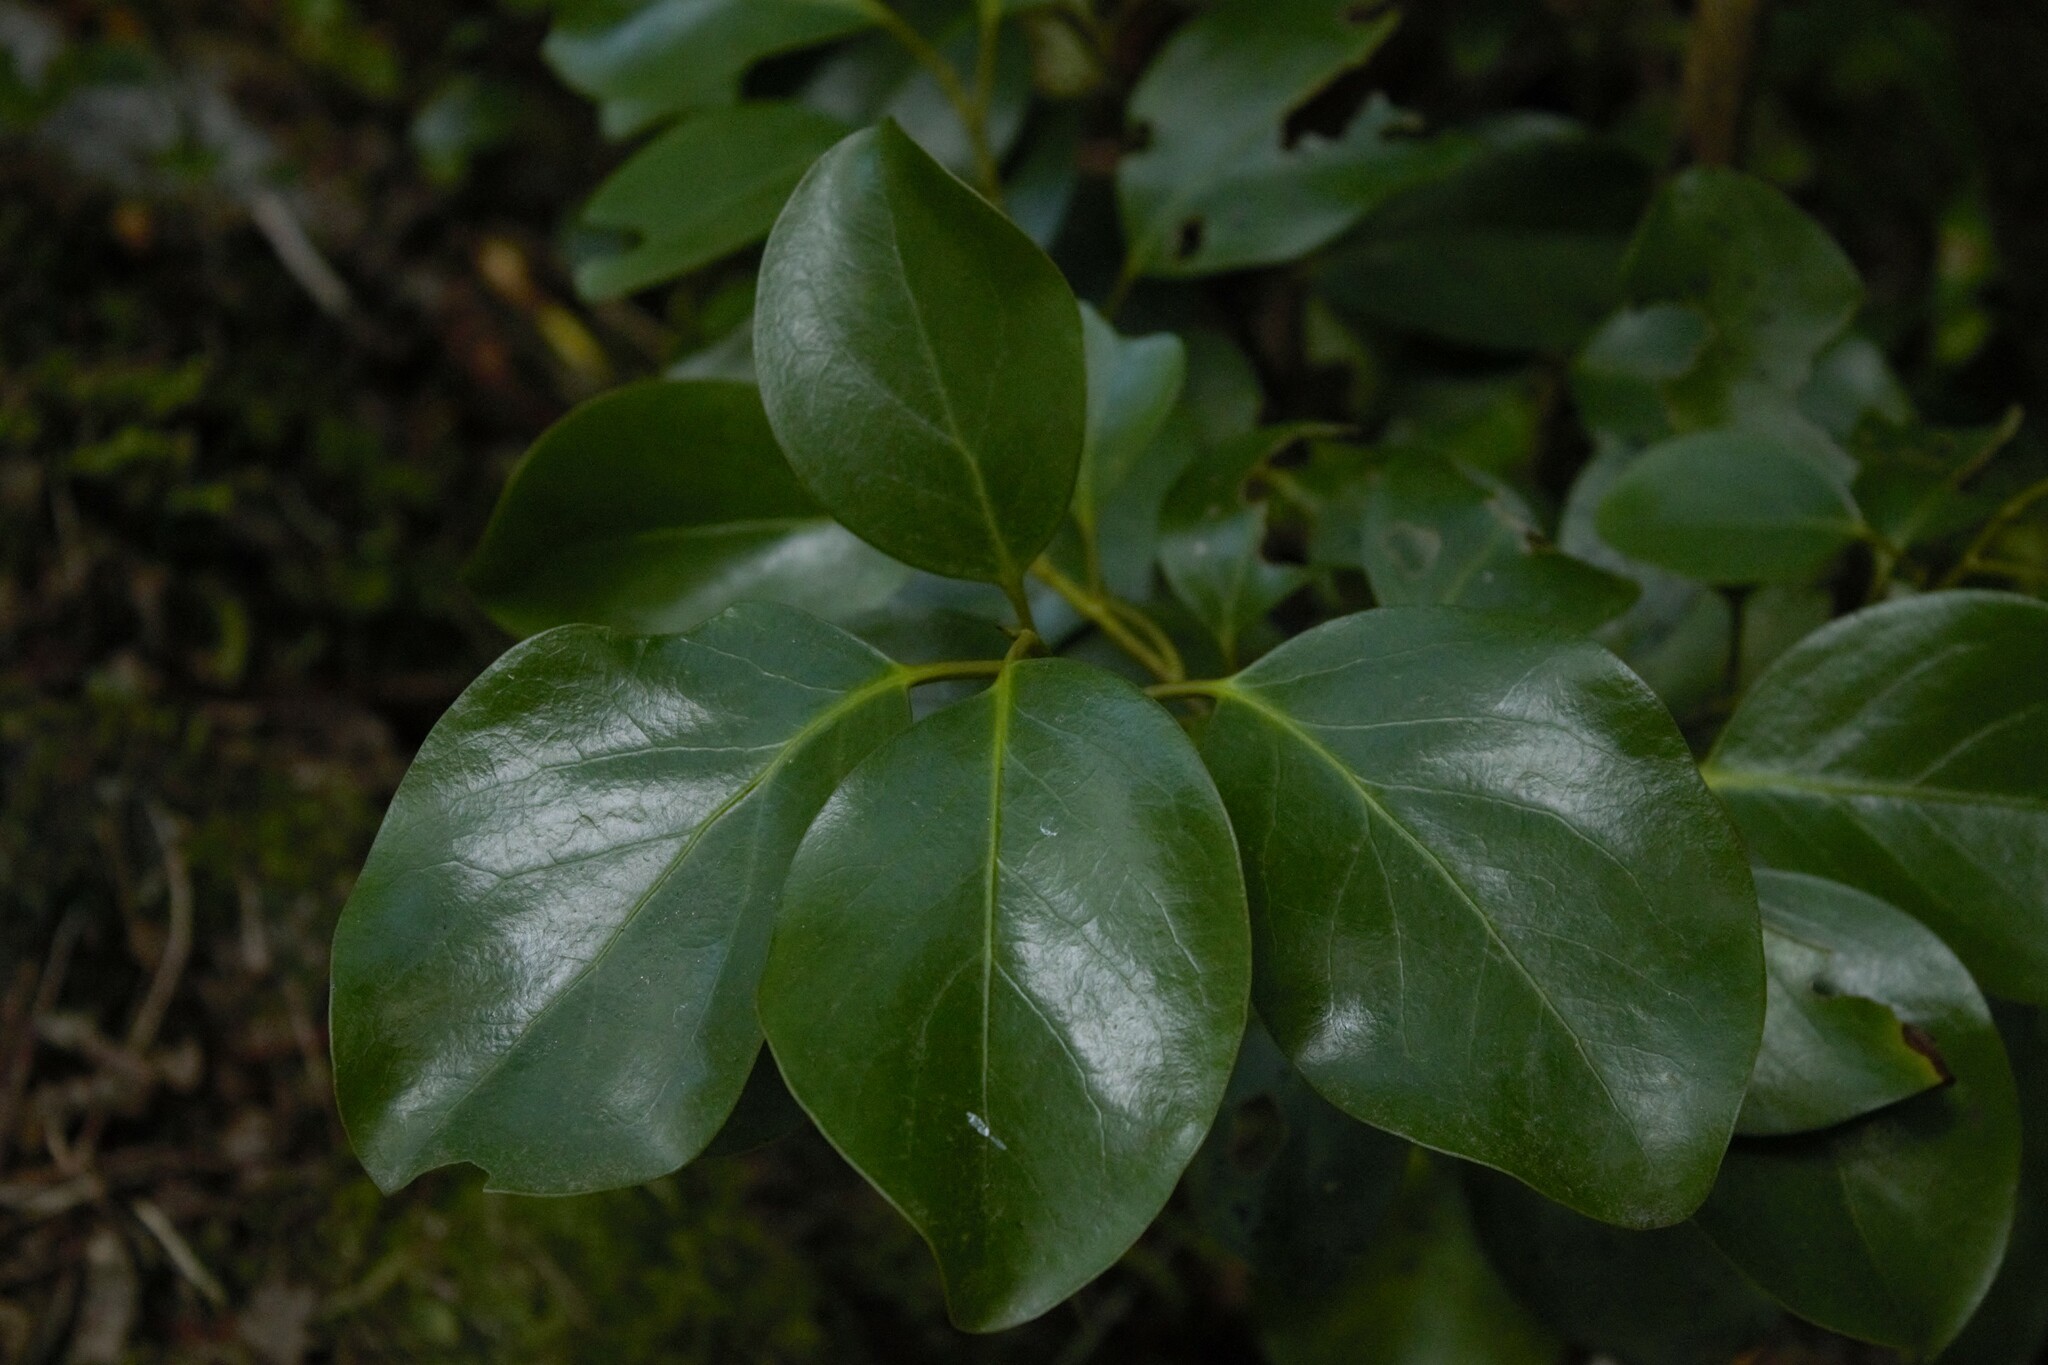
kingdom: Plantae
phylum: Tracheophyta
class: Magnoliopsida
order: Apiales
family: Griseliniaceae
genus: Griselinia
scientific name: Griselinia littoralis
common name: New zealand broadleaf
